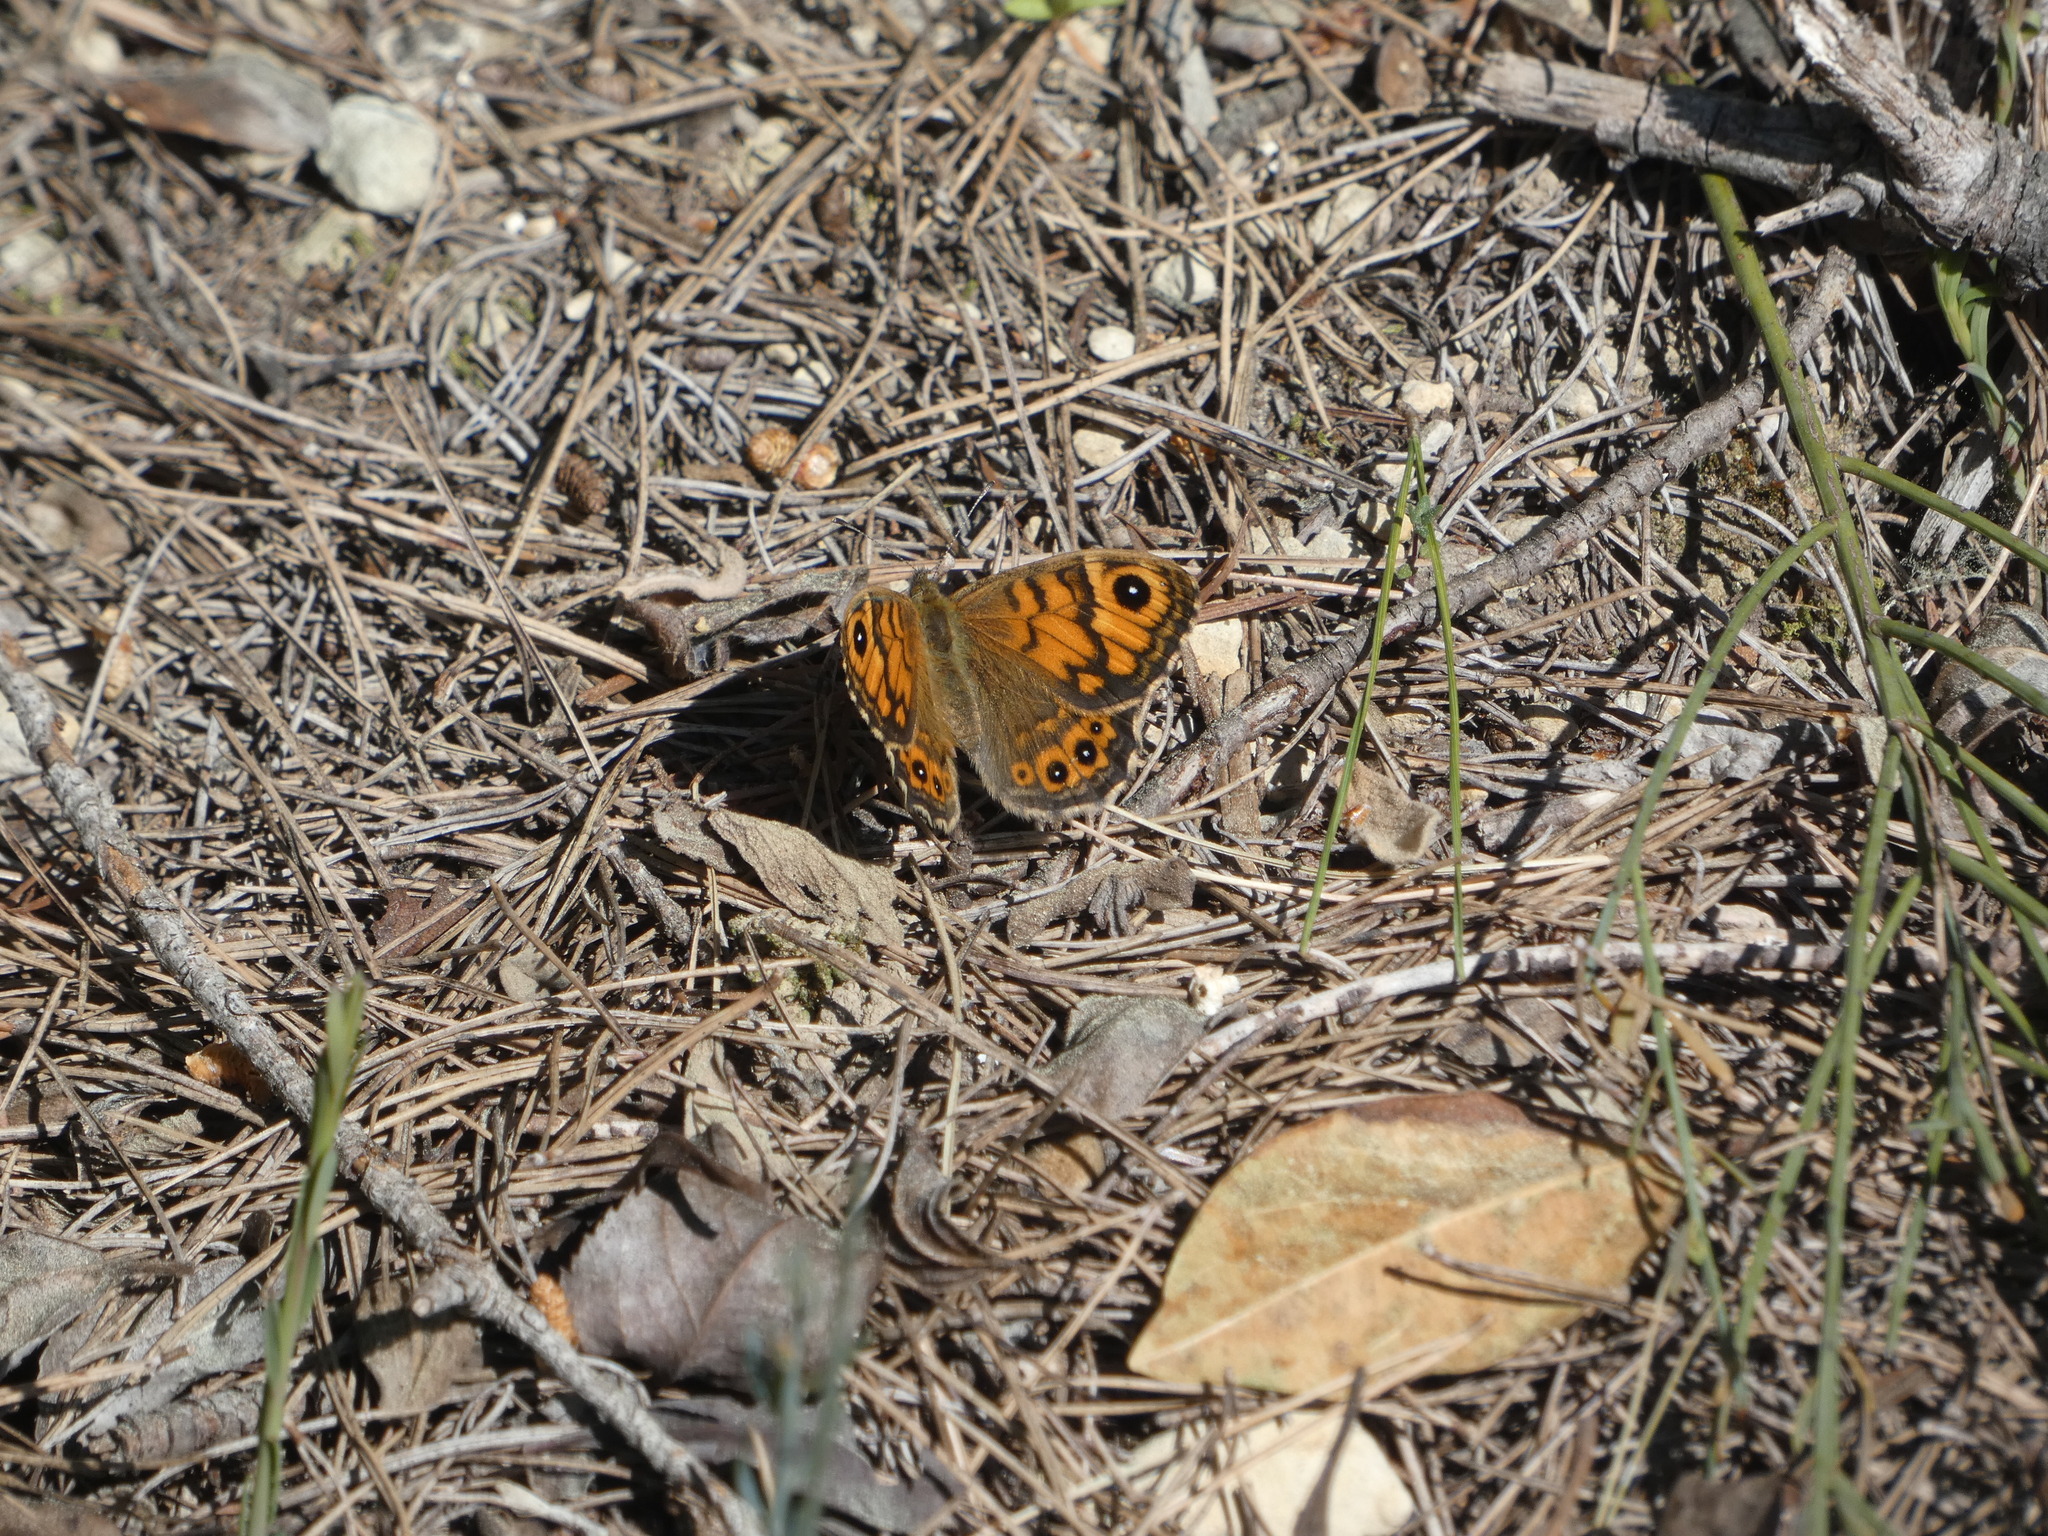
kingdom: Animalia
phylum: Arthropoda
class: Insecta
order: Lepidoptera
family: Nymphalidae
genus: Pararge
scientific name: Pararge Lasiommata megera
